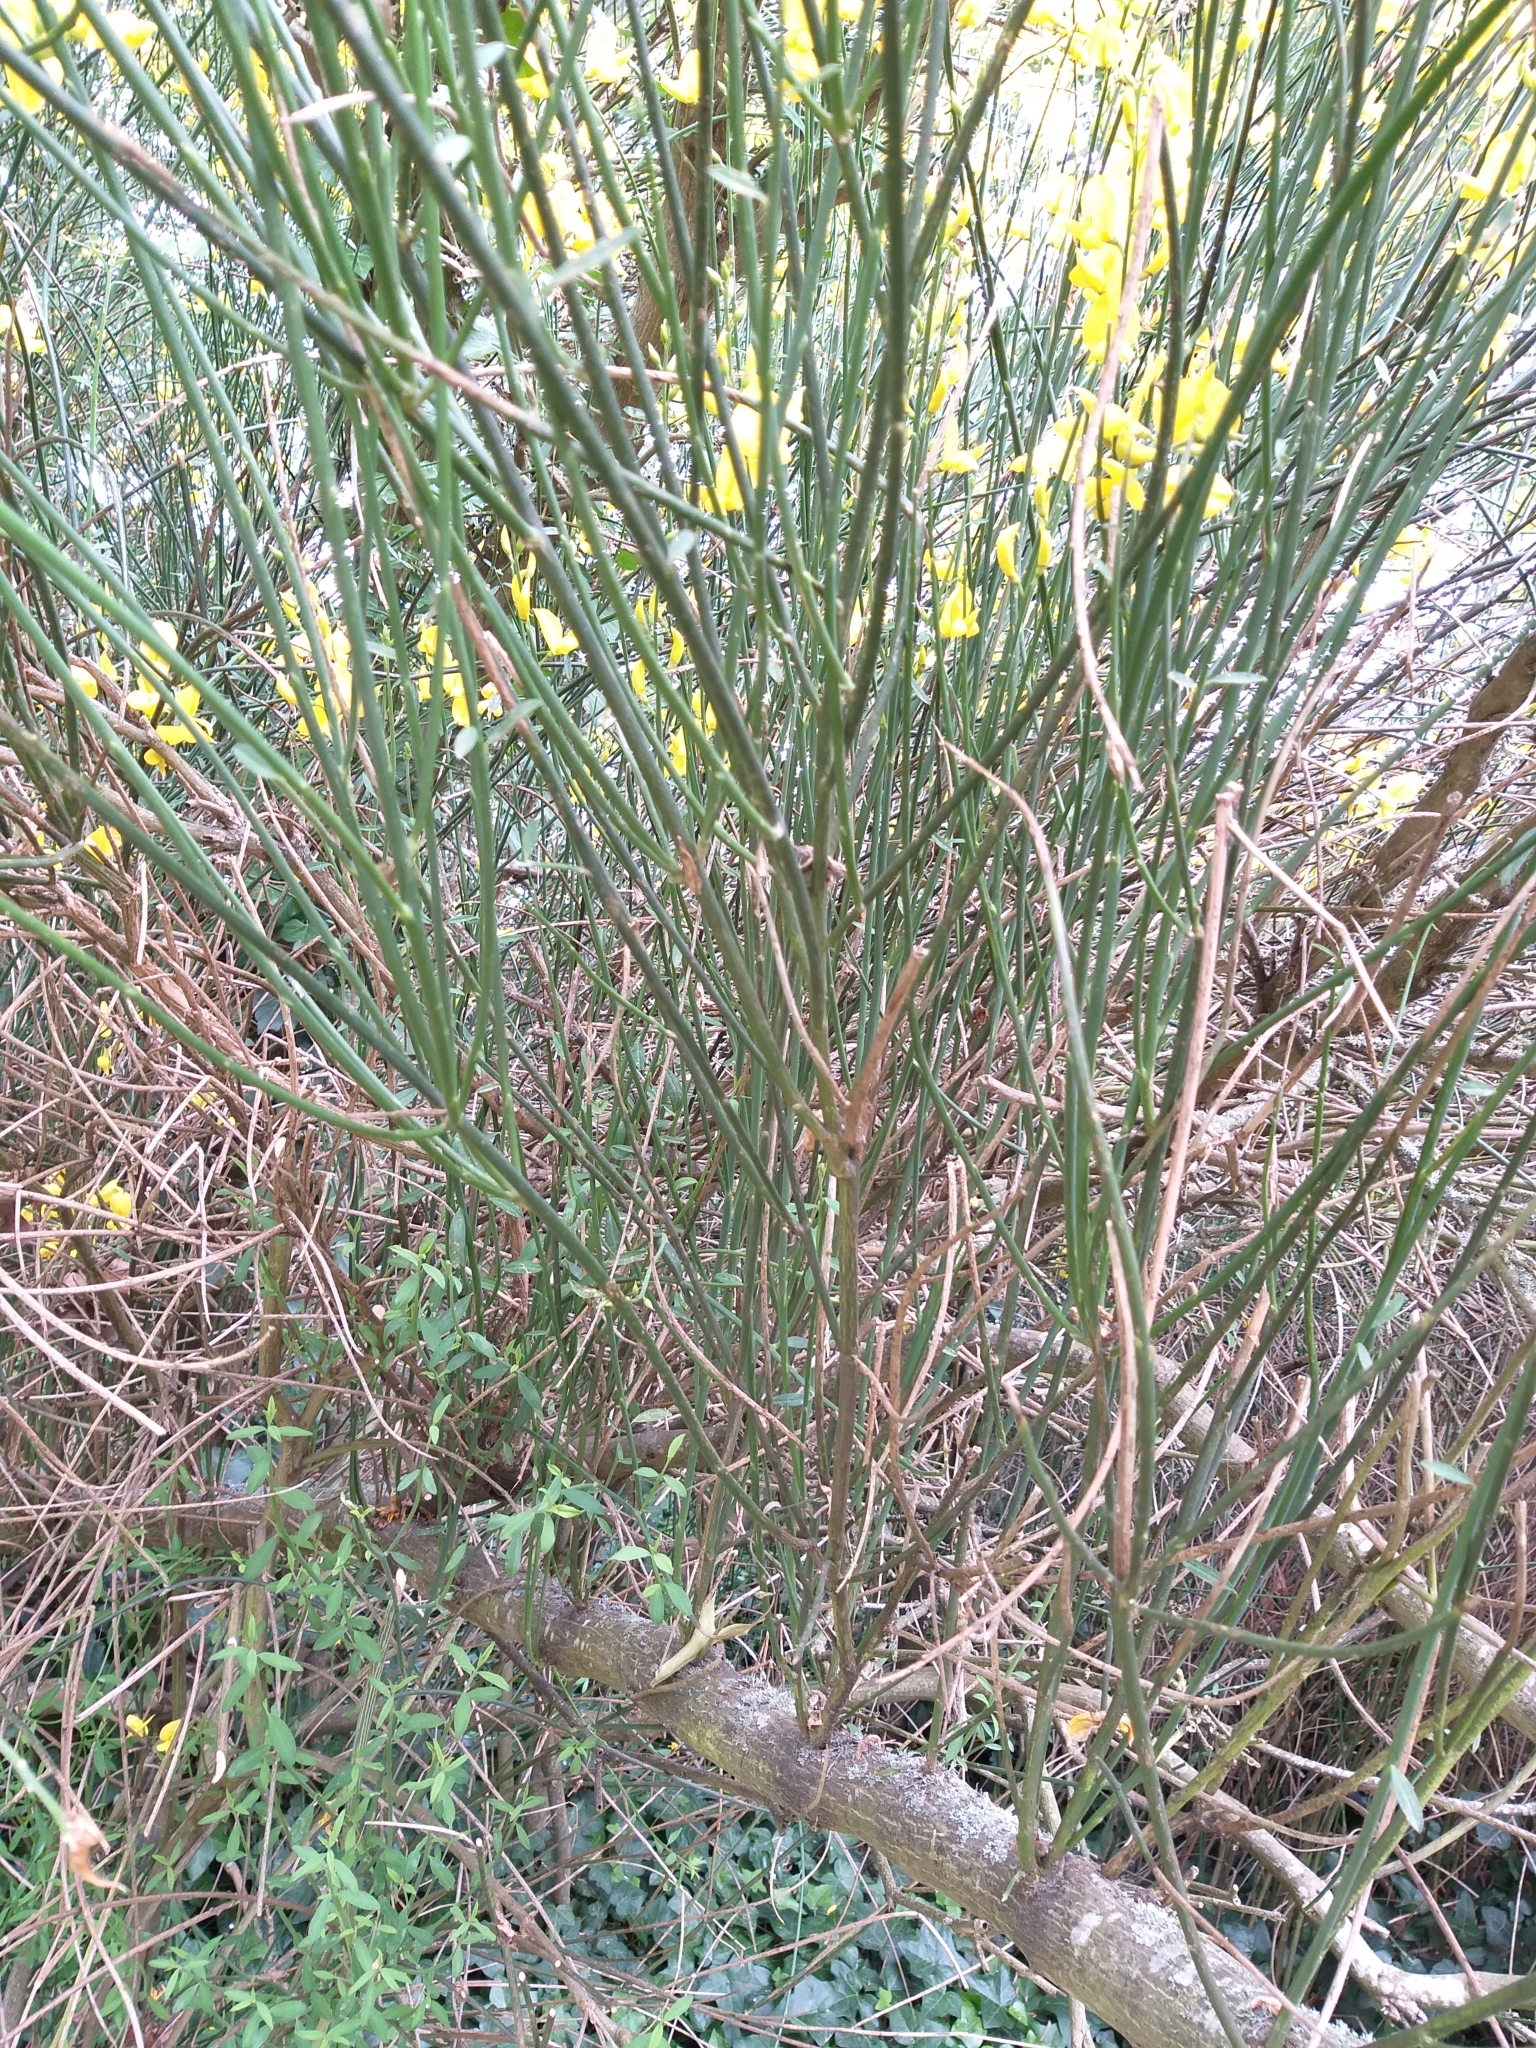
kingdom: Plantae
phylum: Tracheophyta
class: Magnoliopsida
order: Fabales
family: Fabaceae
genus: Spartium
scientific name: Spartium junceum
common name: Spanish broom
